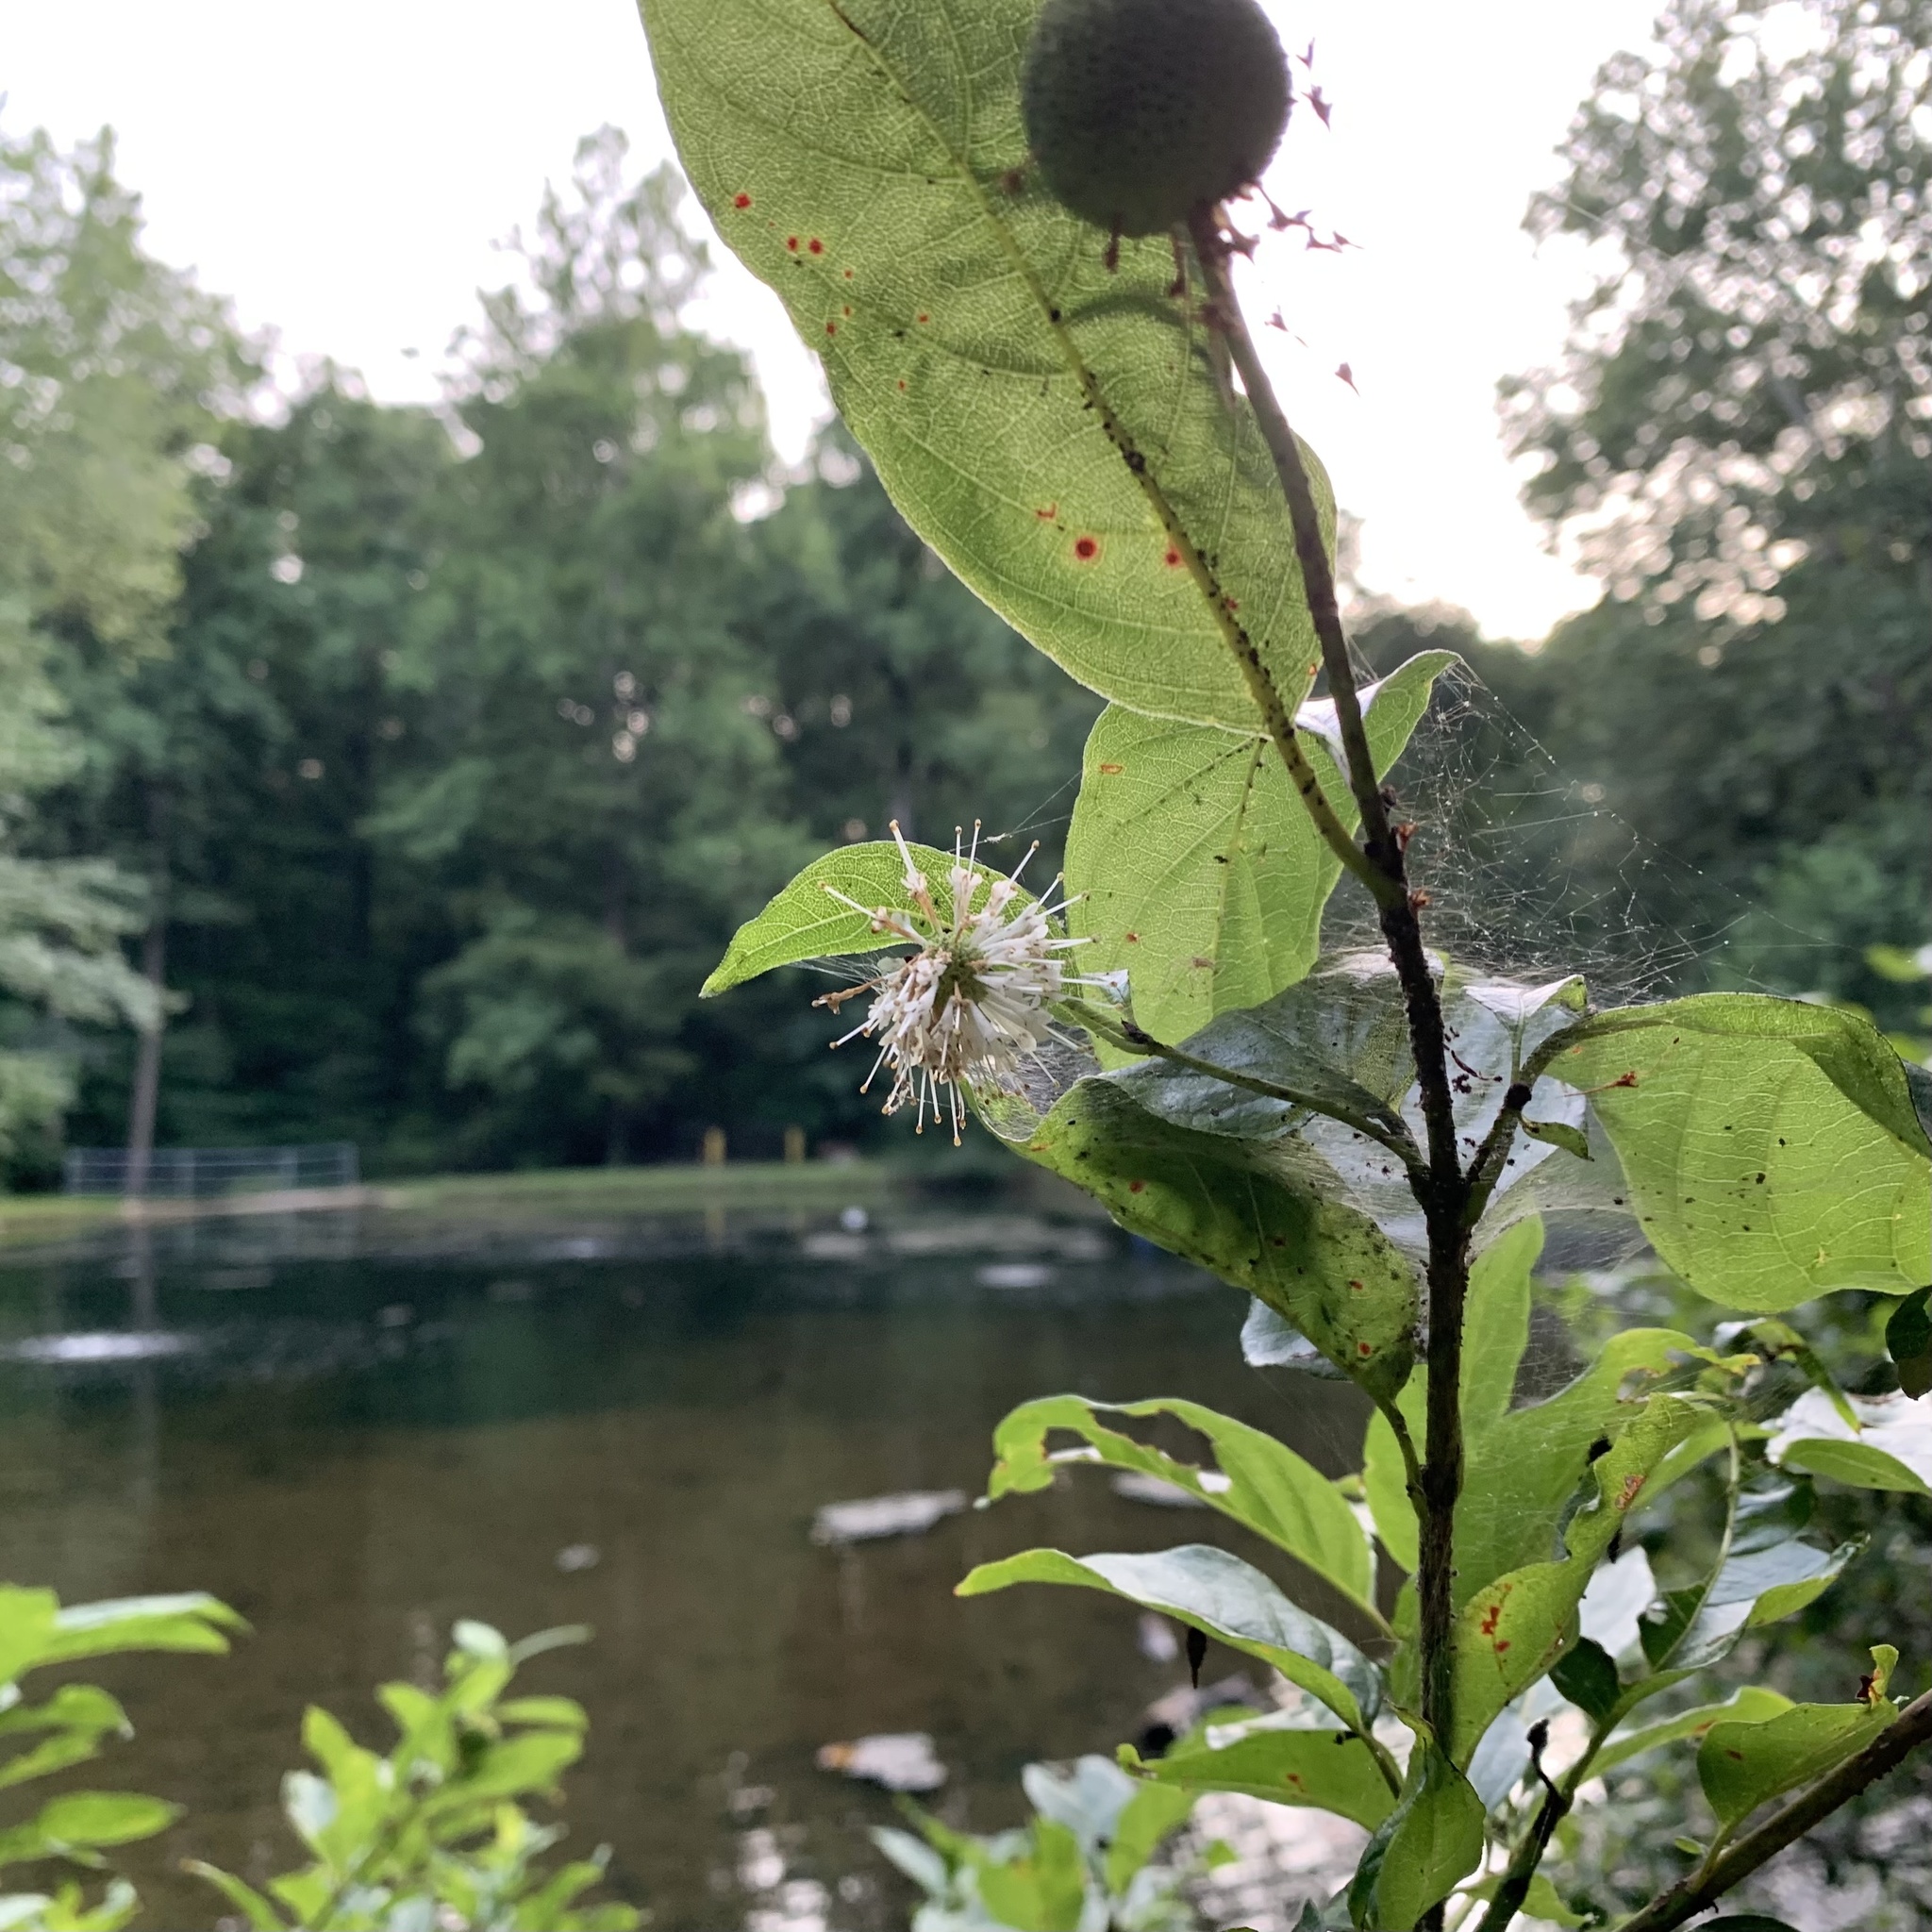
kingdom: Plantae
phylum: Tracheophyta
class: Magnoliopsida
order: Gentianales
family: Rubiaceae
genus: Cephalanthus
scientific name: Cephalanthus occidentalis
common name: Button-willow
